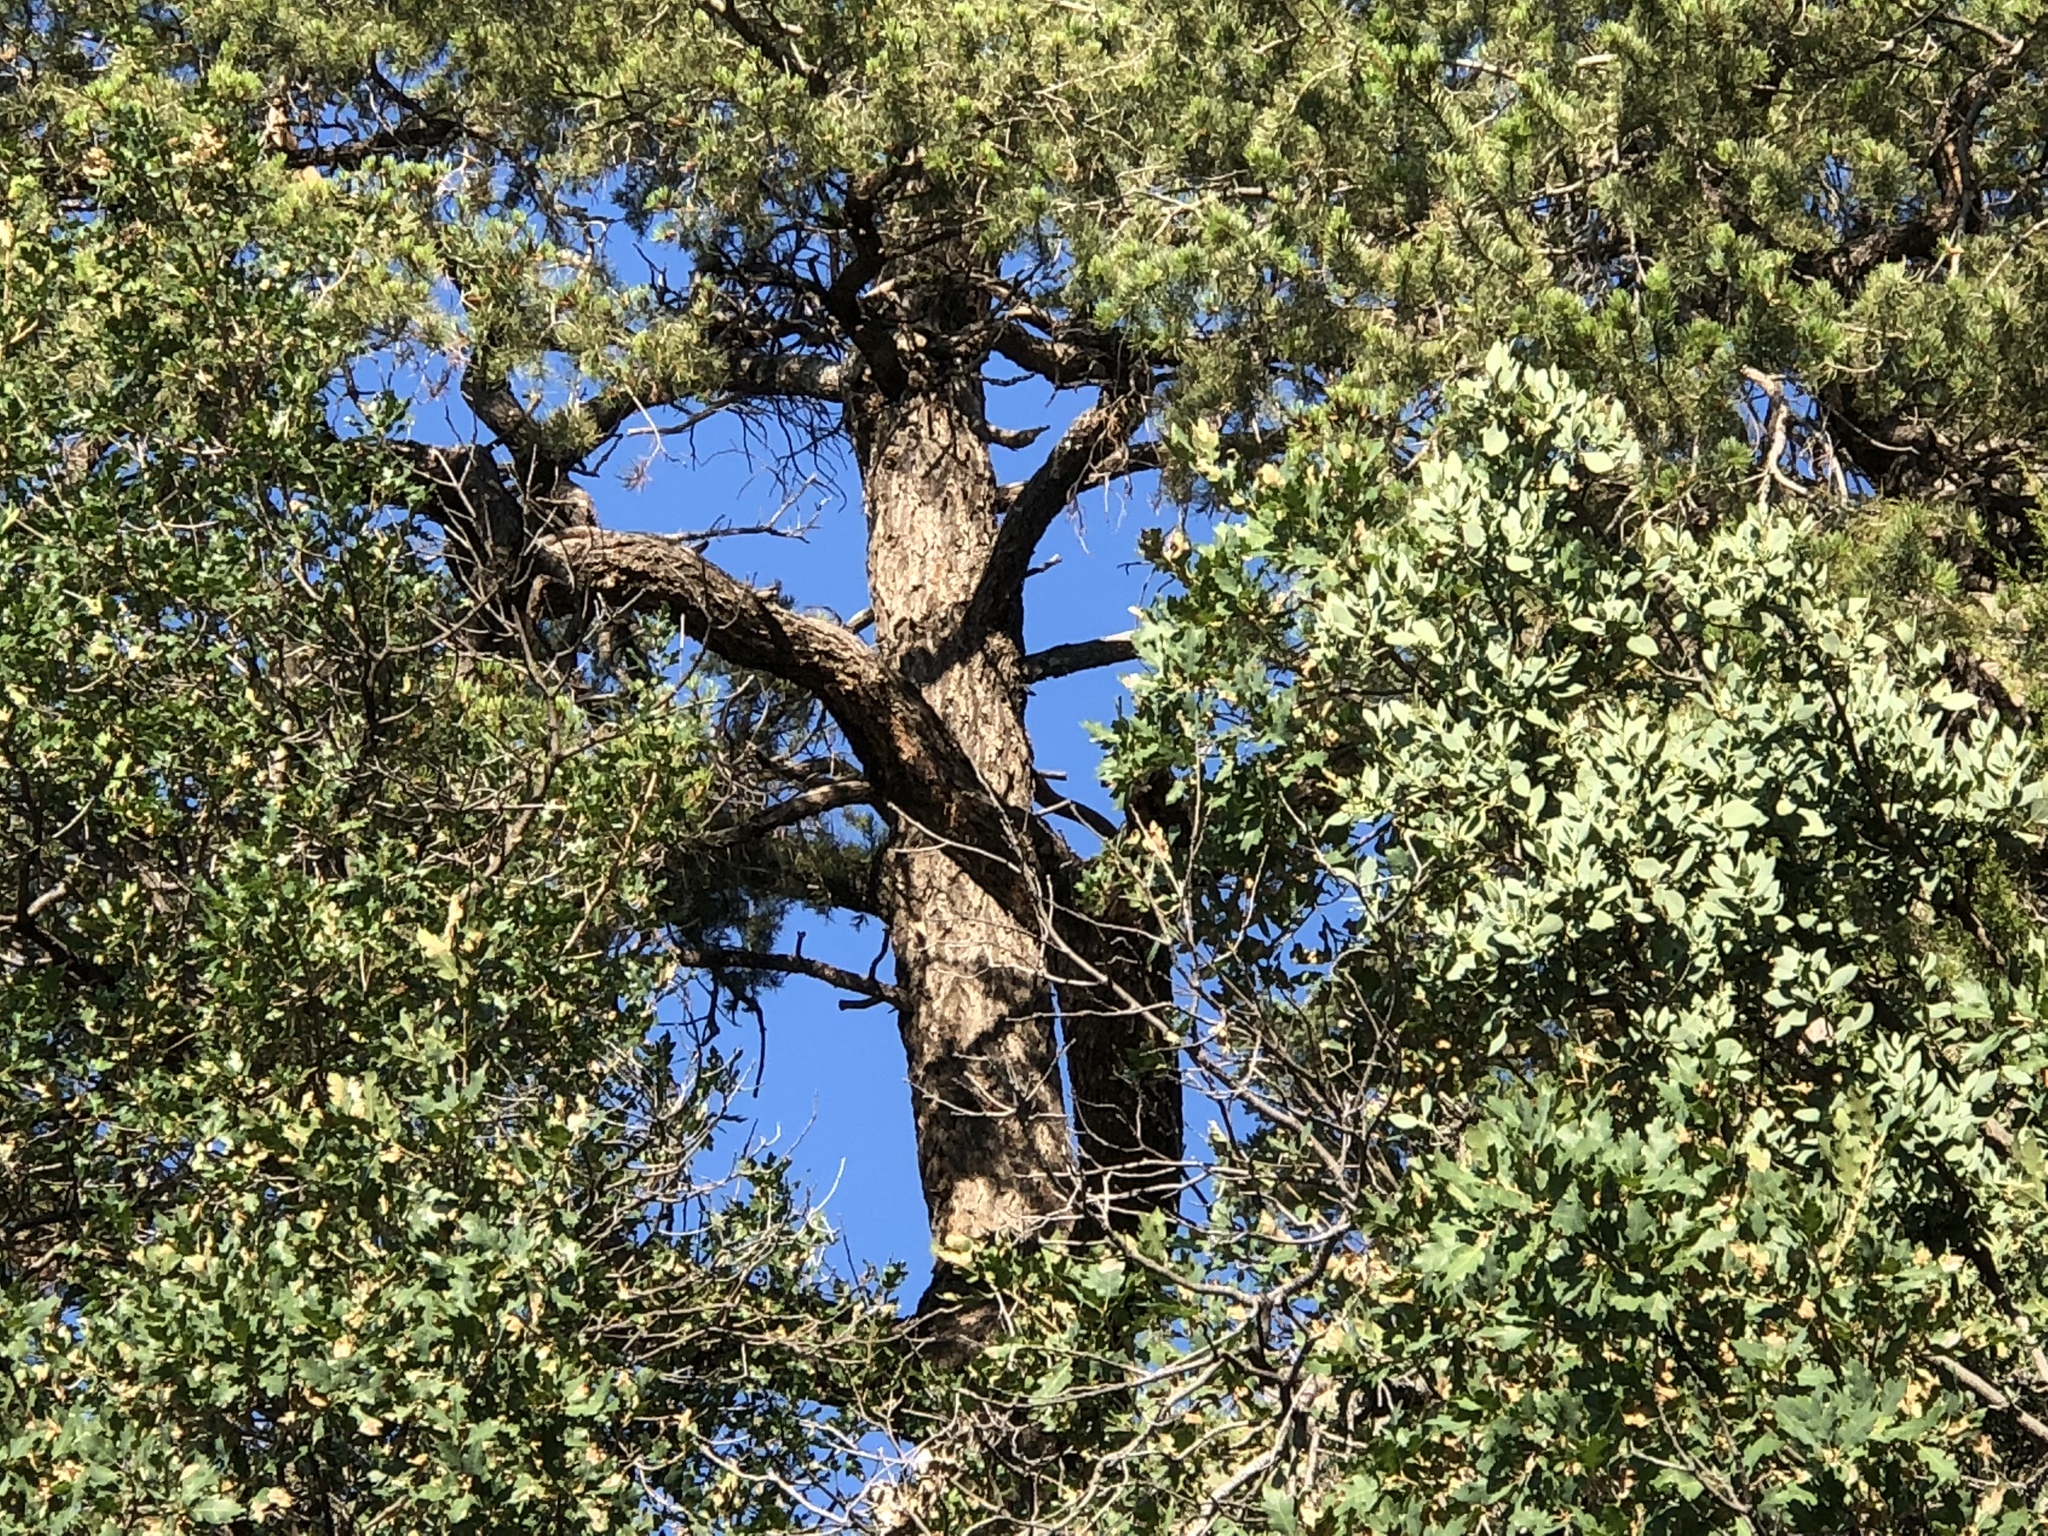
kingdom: Plantae
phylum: Tracheophyta
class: Pinopsida
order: Pinales
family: Pinaceae
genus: Pinus
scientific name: Pinus edulis
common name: Colorado pinyon
